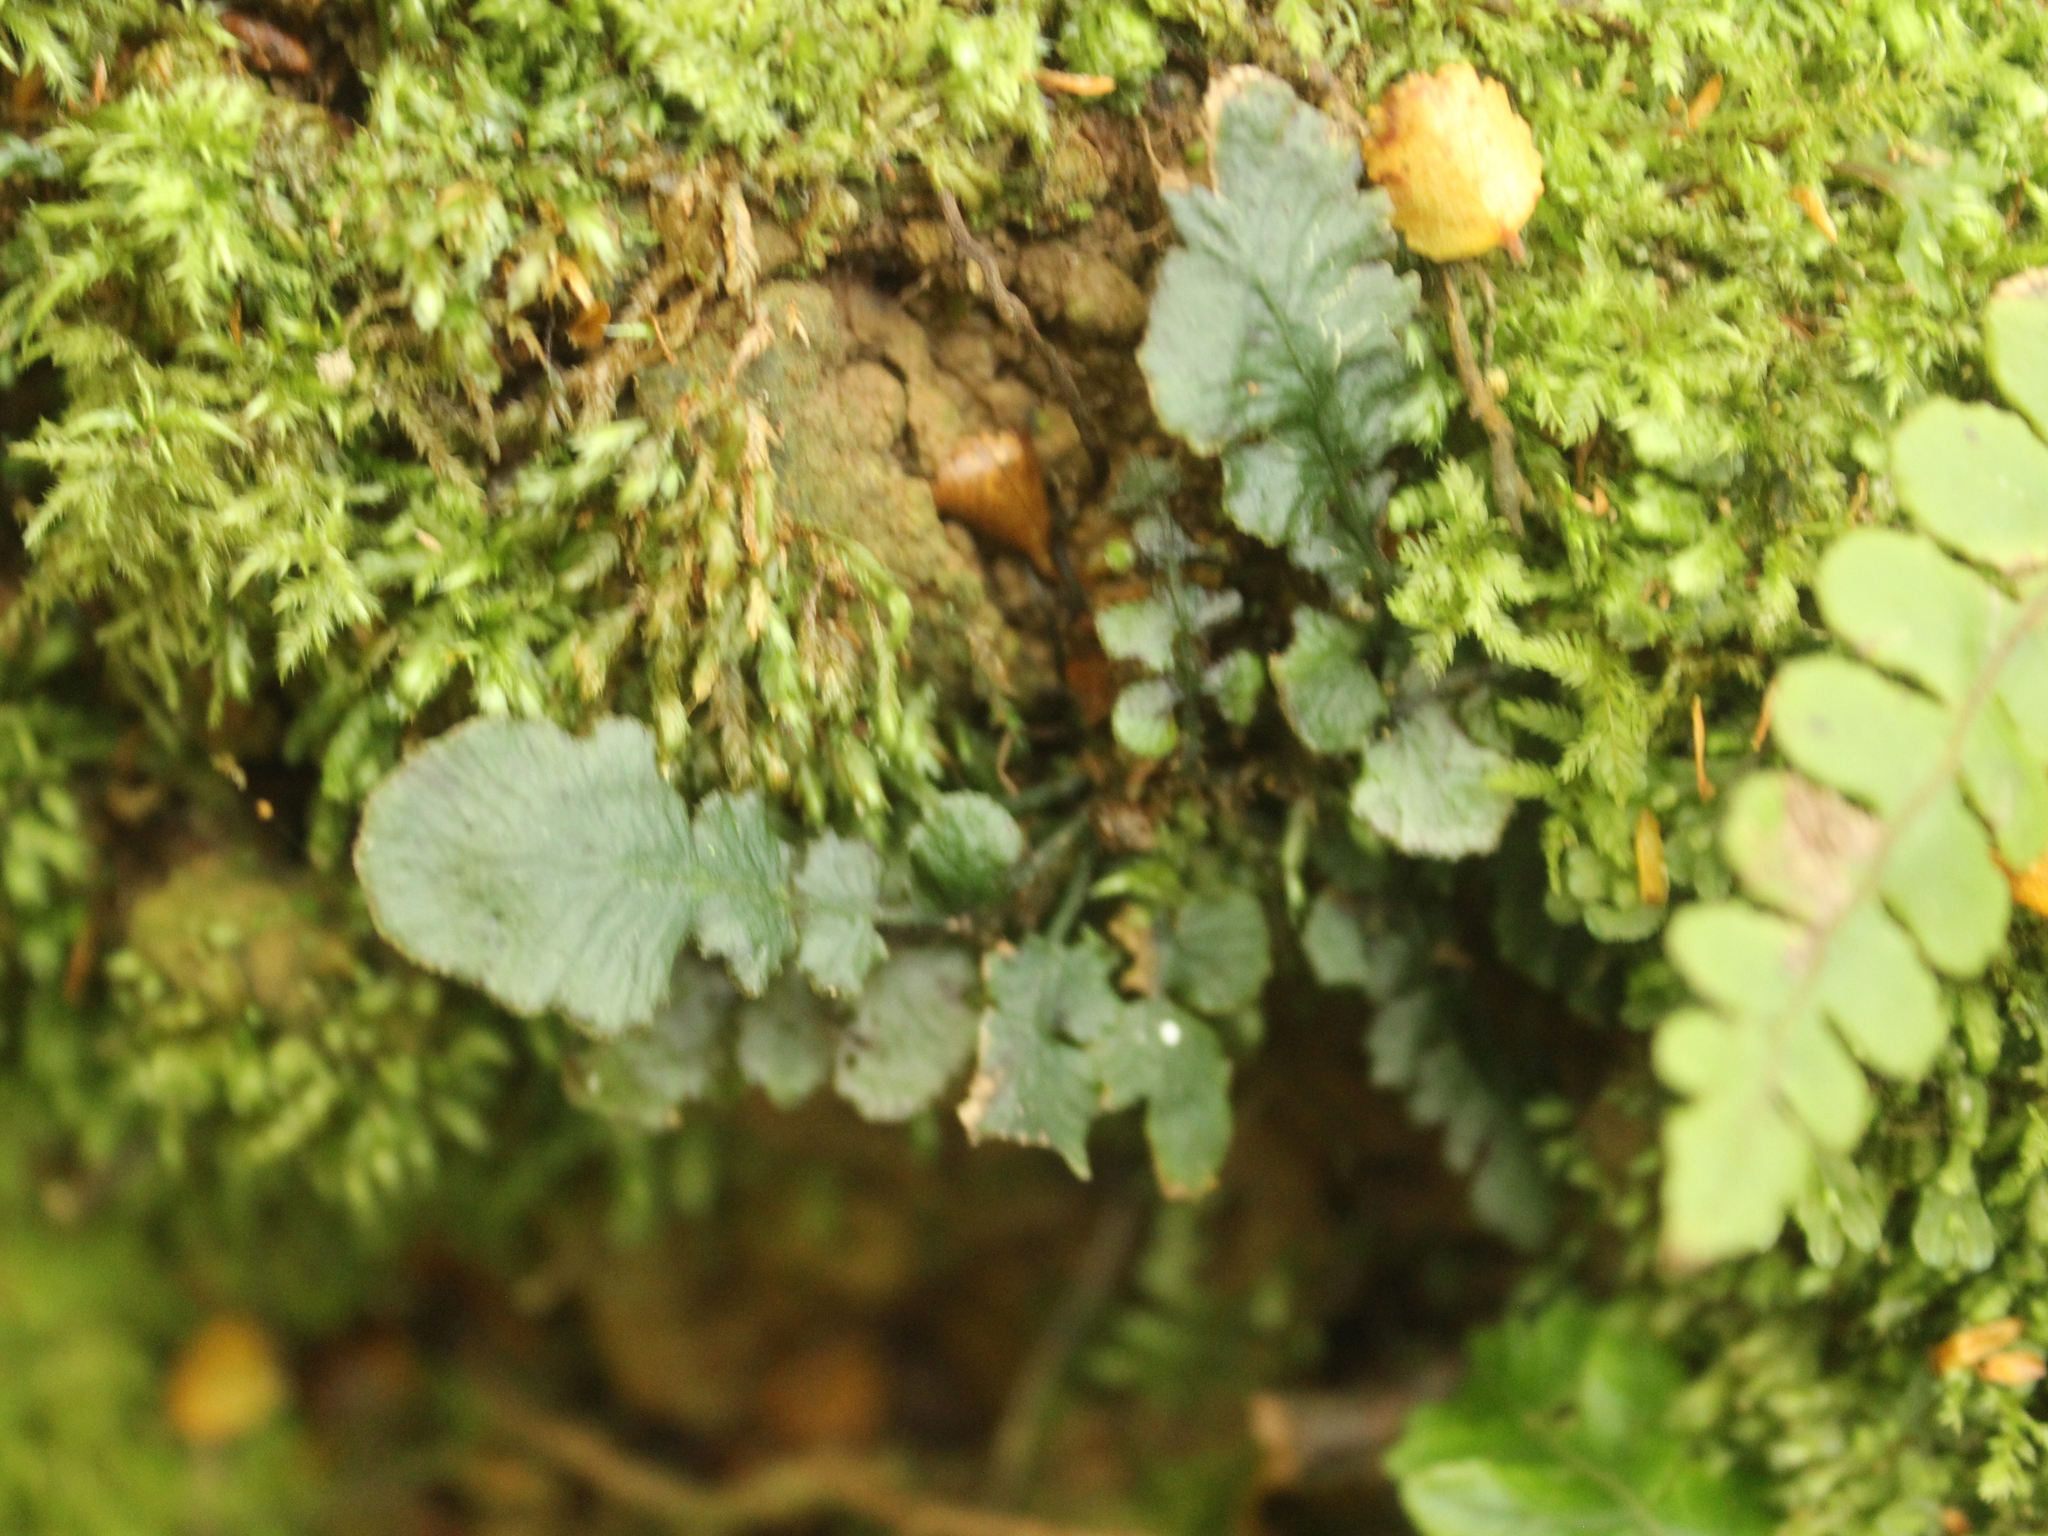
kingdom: Plantae
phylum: Tracheophyta
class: Polypodiopsida
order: Polypodiales
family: Blechnaceae
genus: Cranfillia
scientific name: Cranfillia nigra
